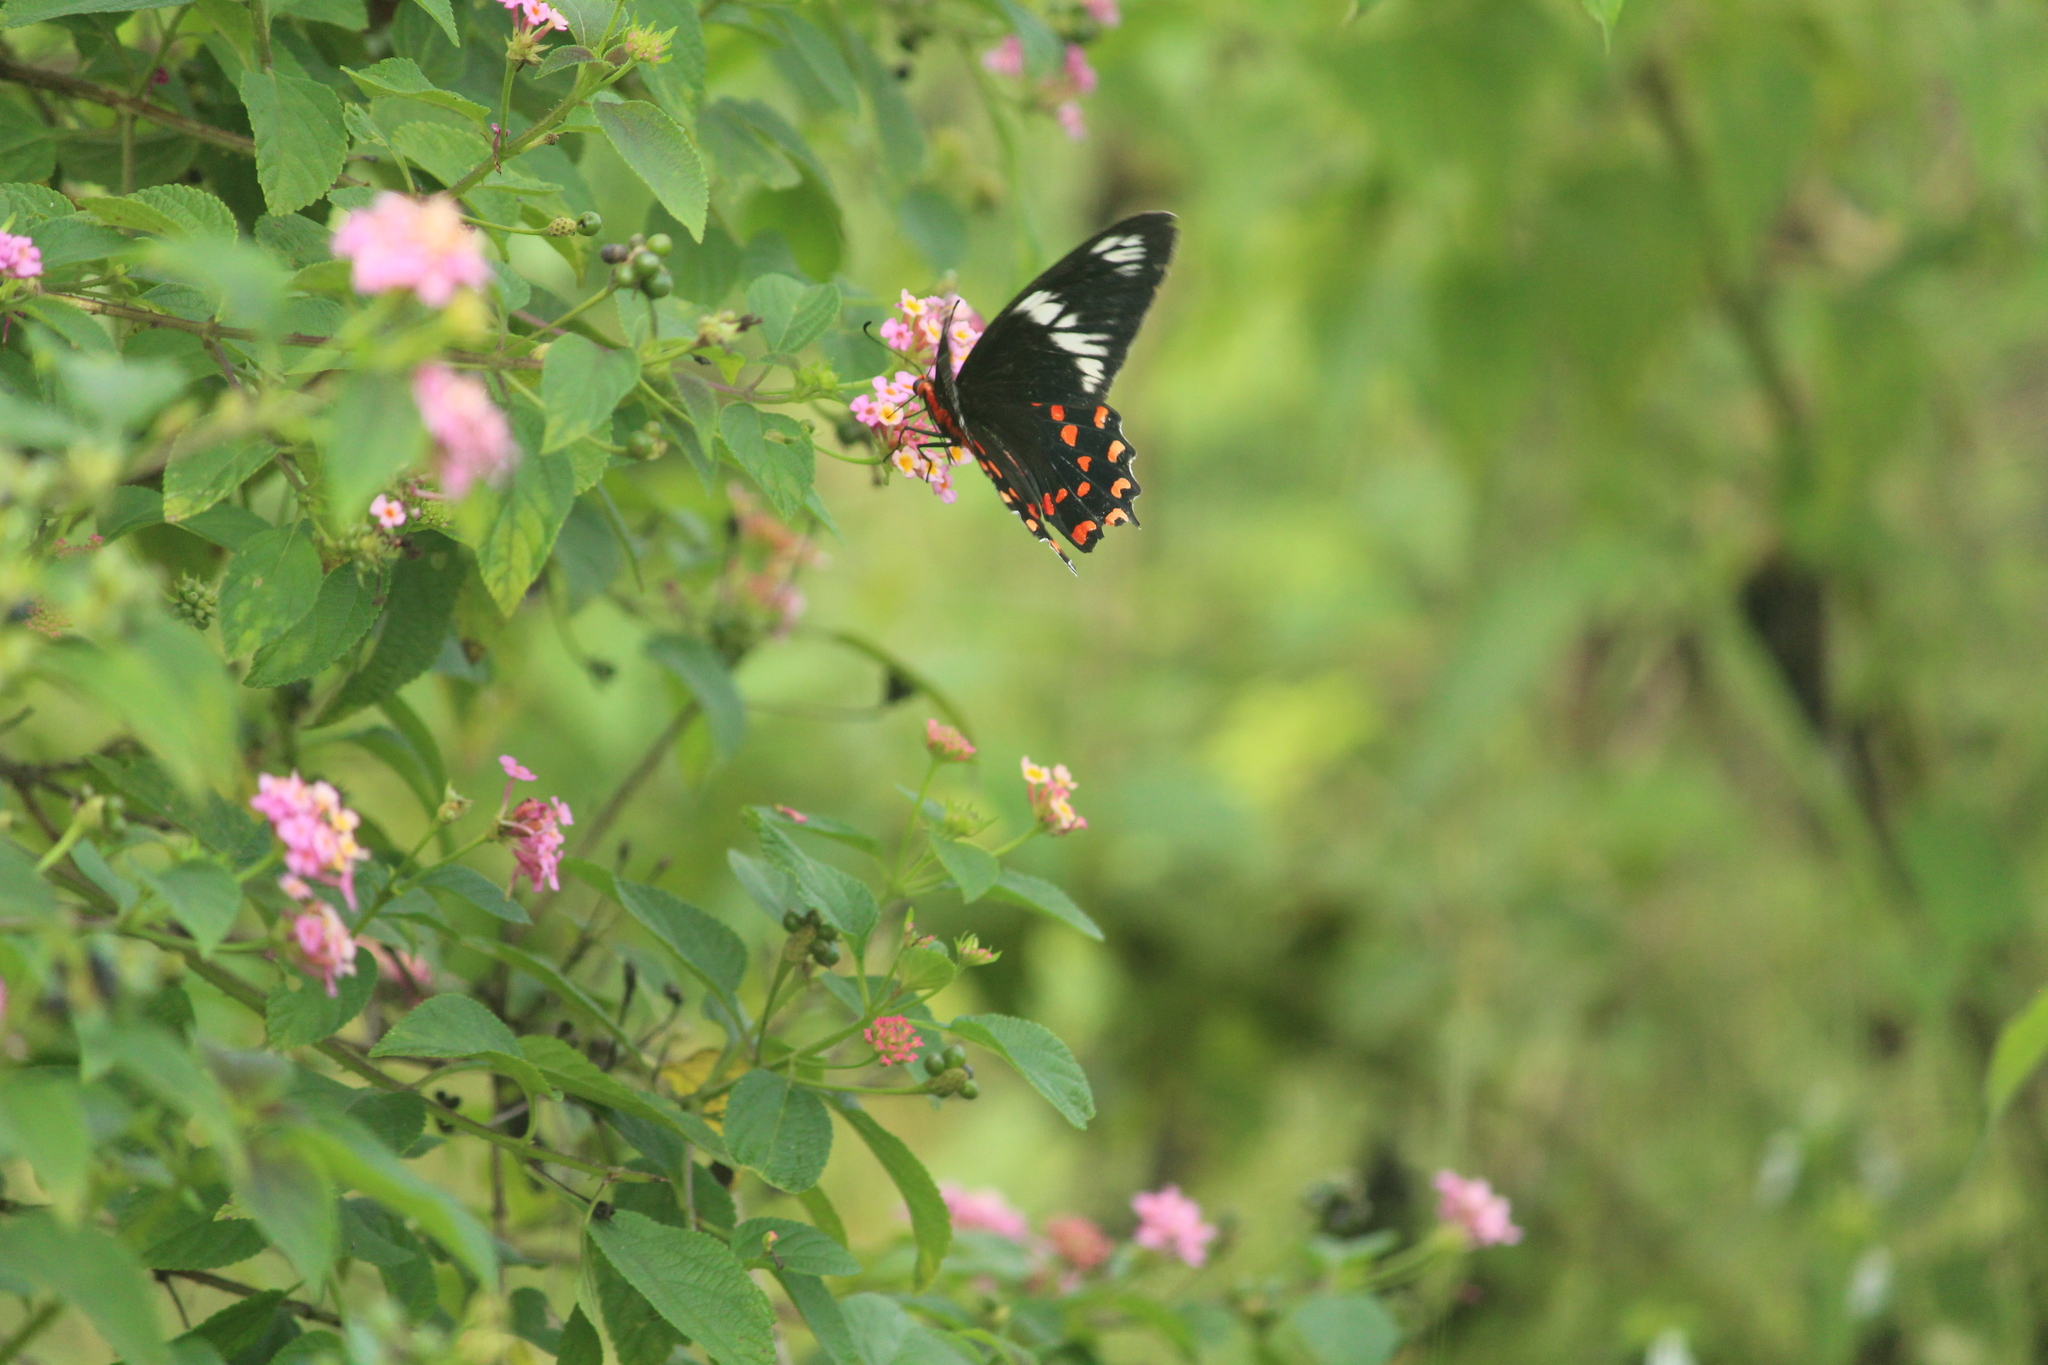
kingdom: Animalia
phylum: Arthropoda
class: Insecta
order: Lepidoptera
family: Papilionidae
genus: Pachliopta
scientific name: Pachliopta hector
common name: Crimson rose
